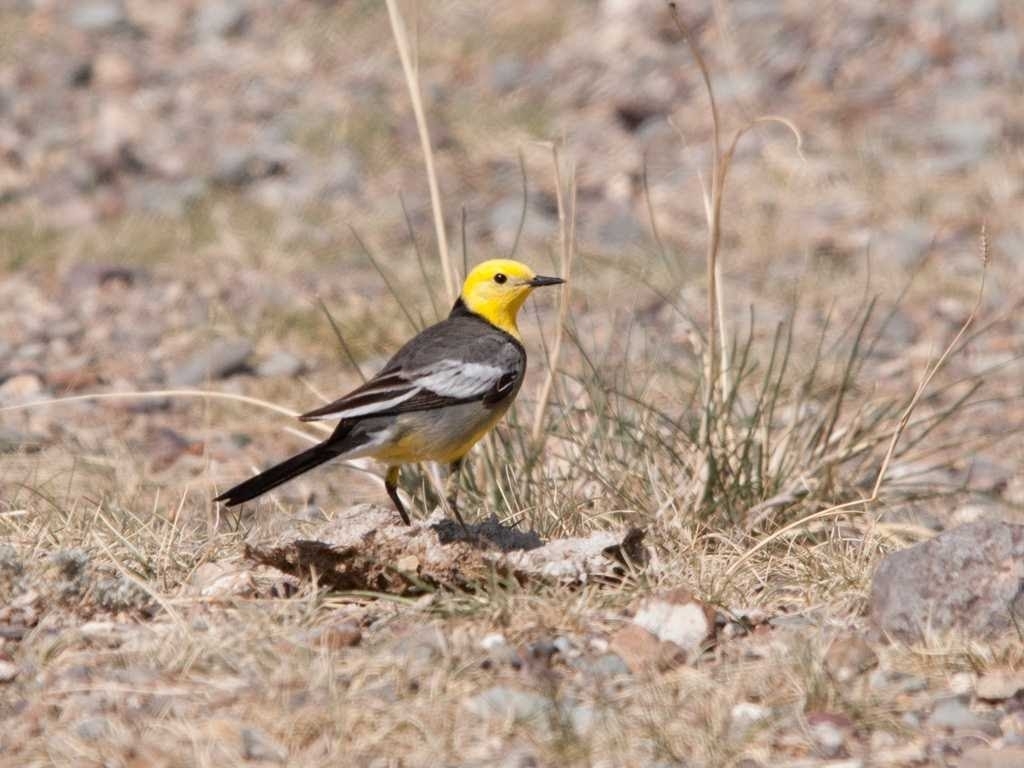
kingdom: Animalia
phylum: Chordata
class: Aves
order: Passeriformes
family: Motacillidae
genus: Motacilla
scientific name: Motacilla citreola
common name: Citrine wagtail
